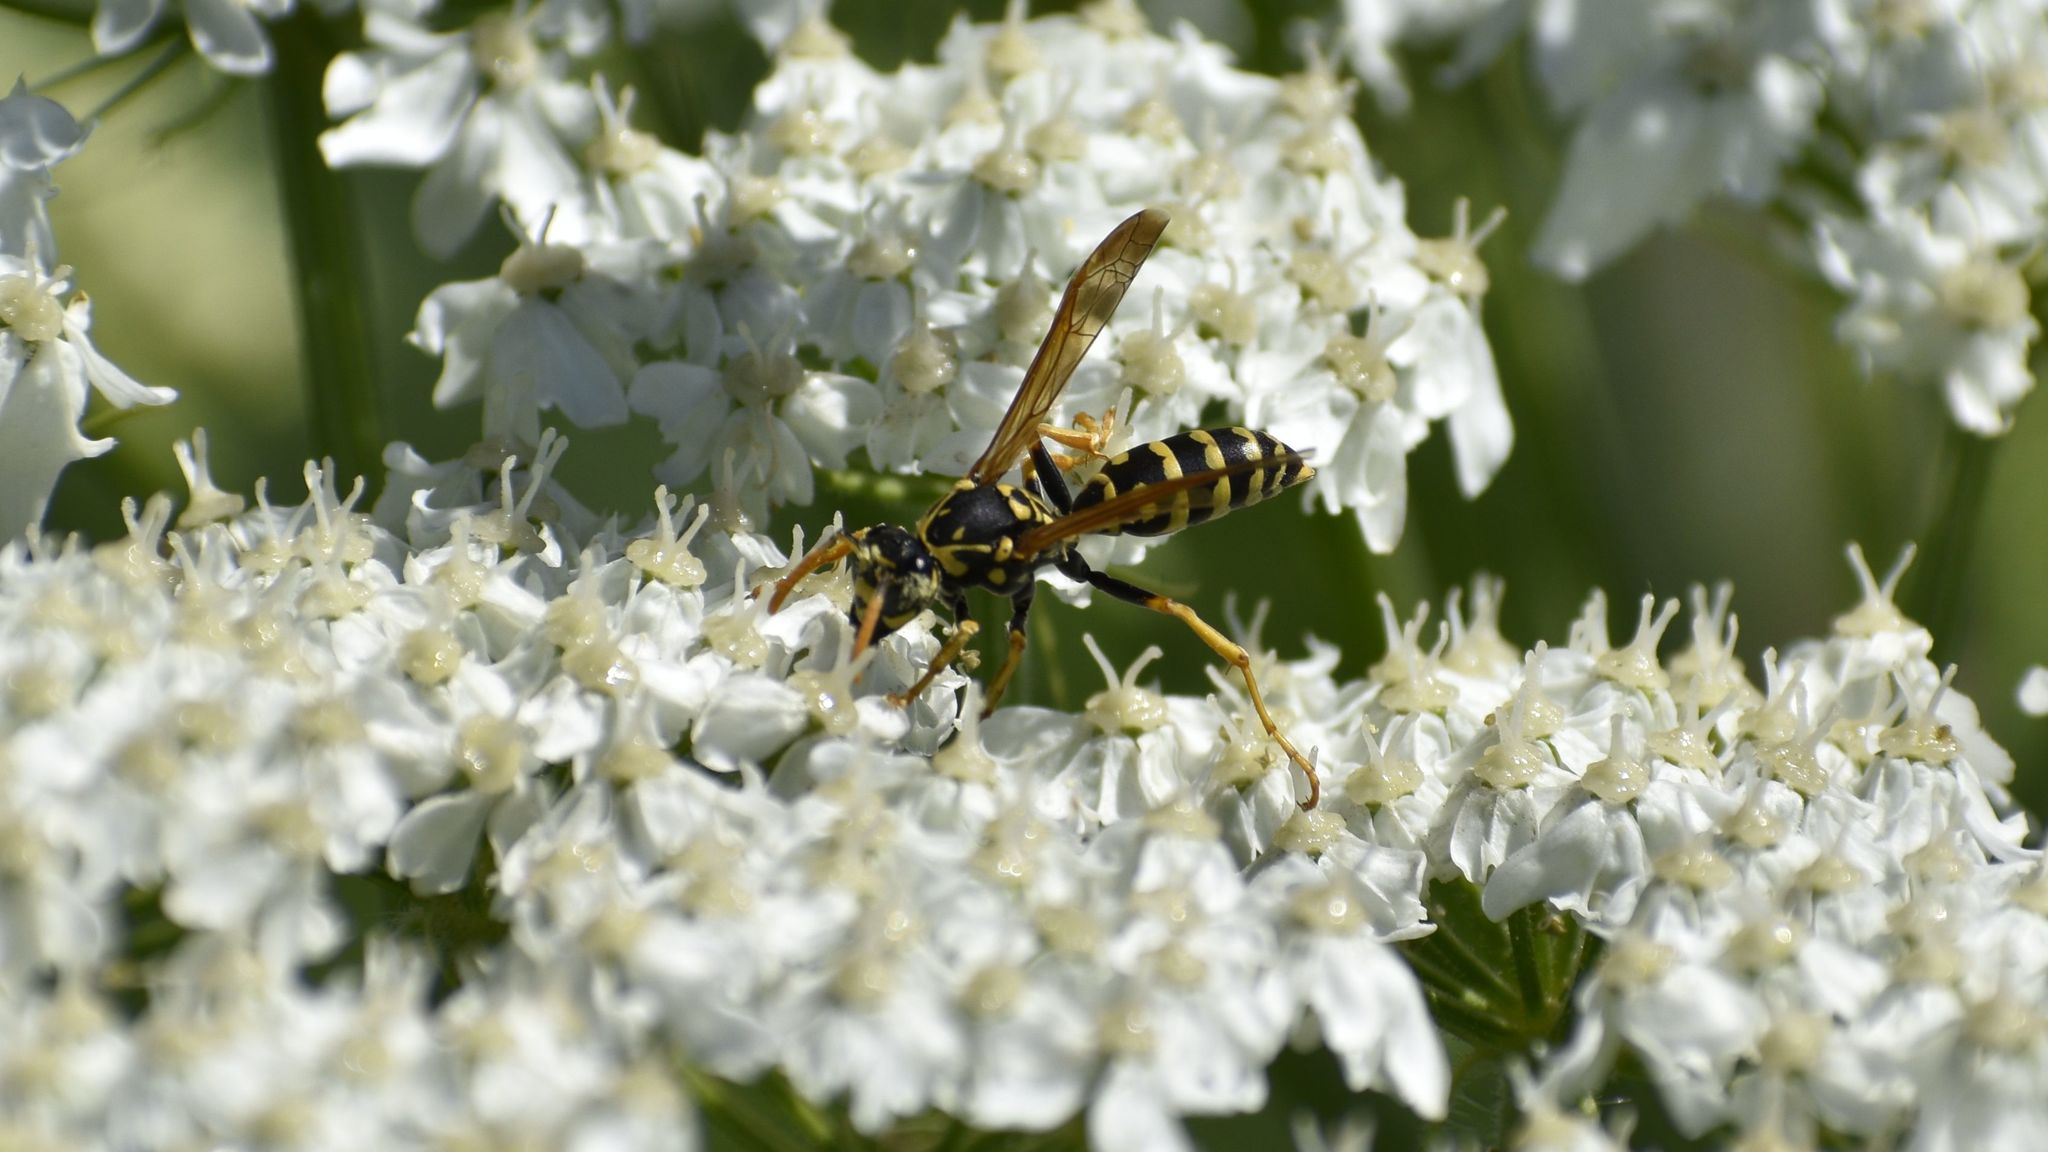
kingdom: Animalia
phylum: Arthropoda
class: Insecta
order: Hymenoptera
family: Eumenidae
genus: Polistes
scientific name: Polistes dominula
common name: Paper wasp
